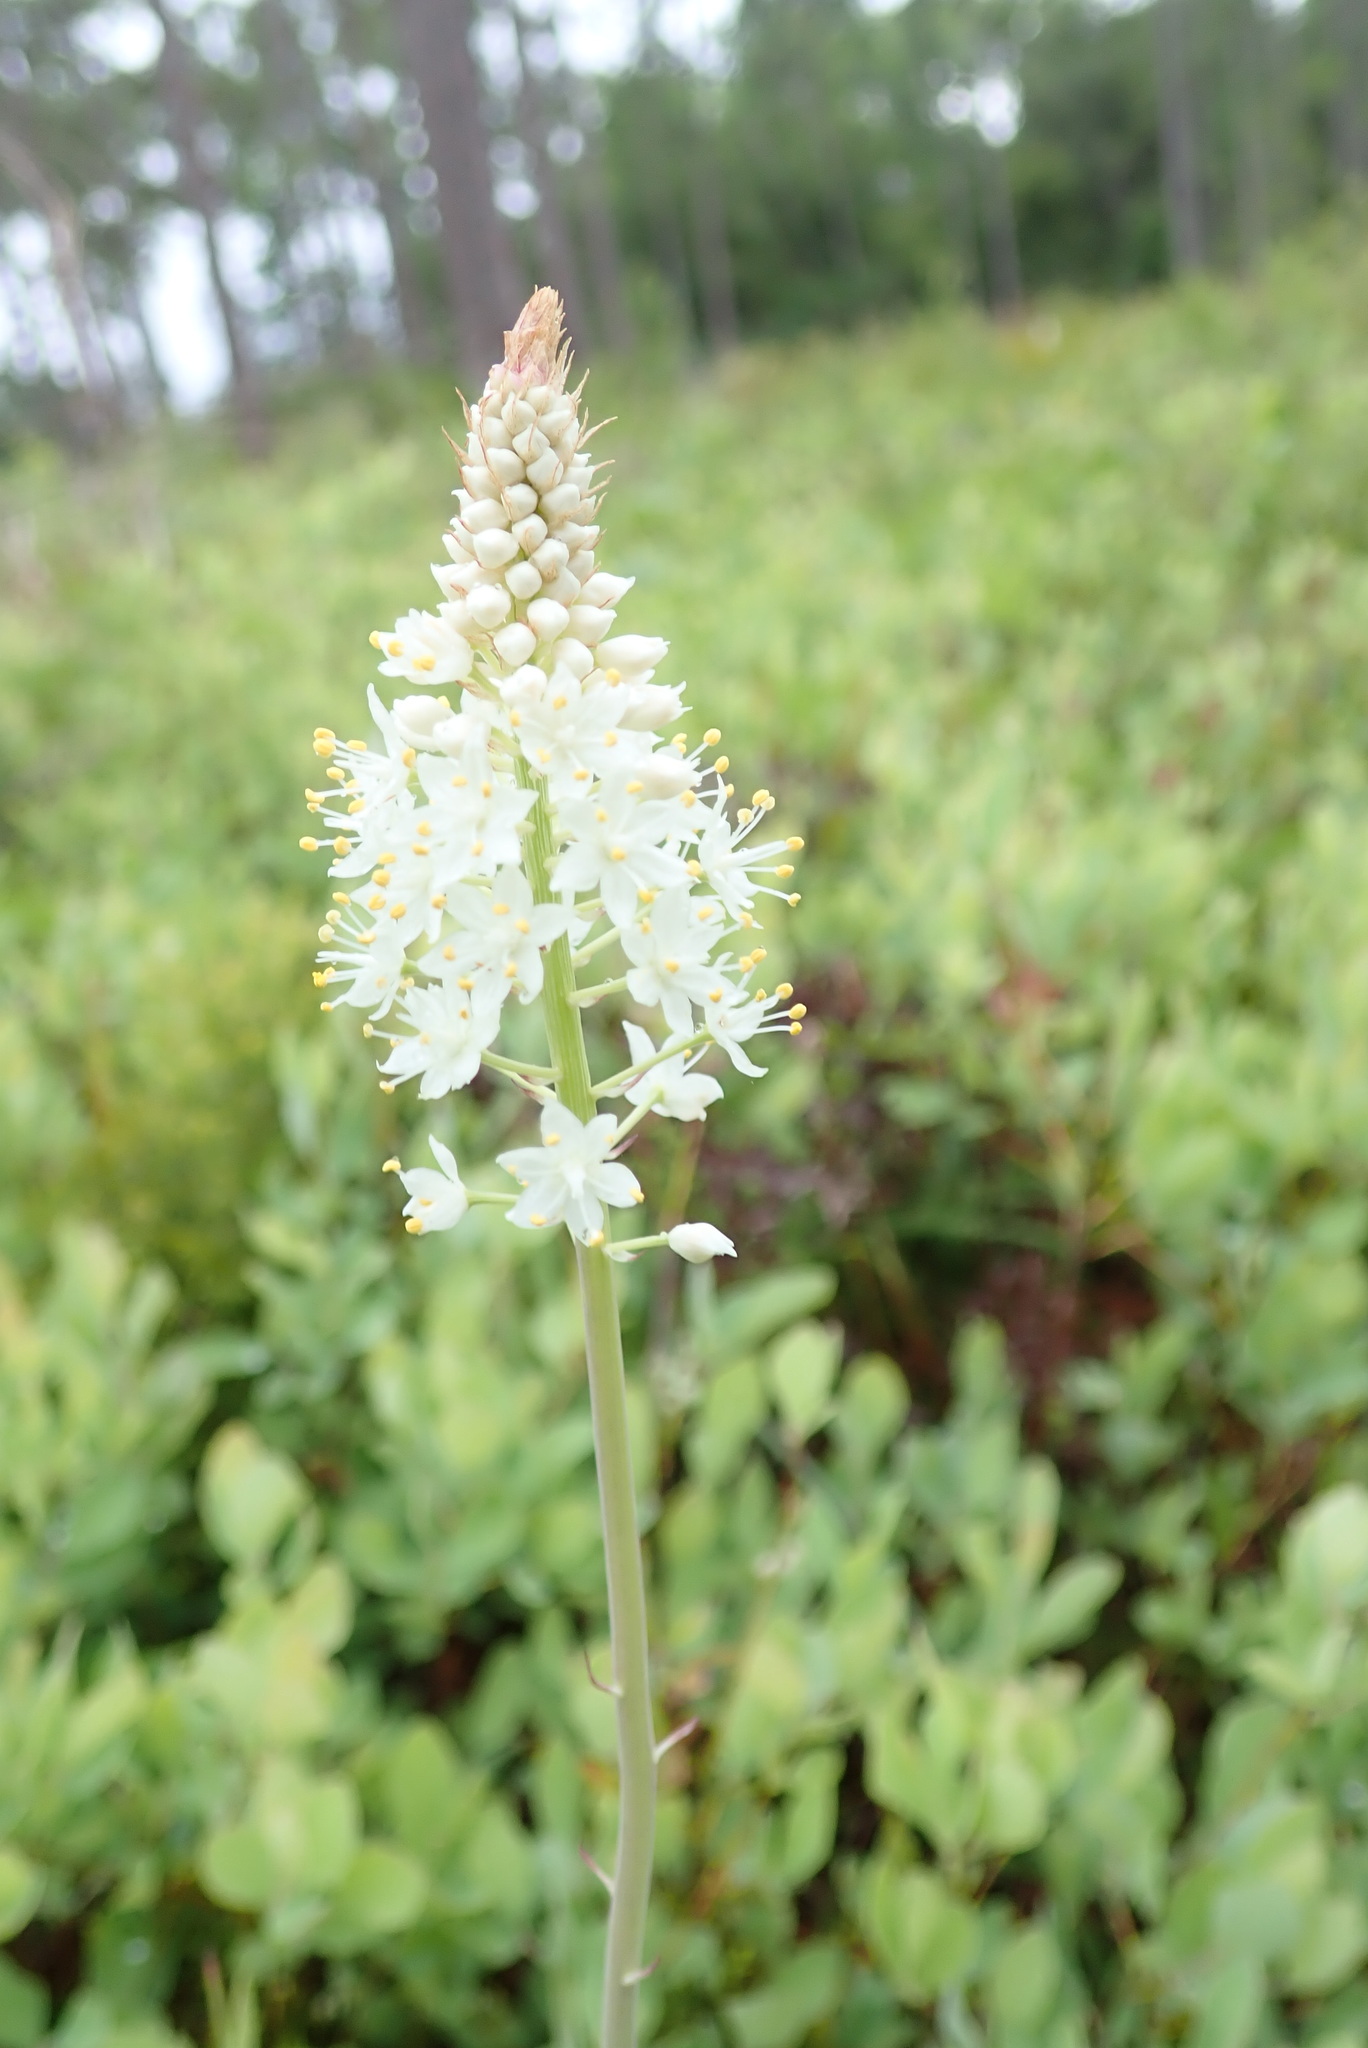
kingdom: Plantae
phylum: Tracheophyta
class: Liliopsida
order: Liliales
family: Melanthiaceae
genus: Stenanthium
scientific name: Stenanthium densum
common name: Crow-poison
